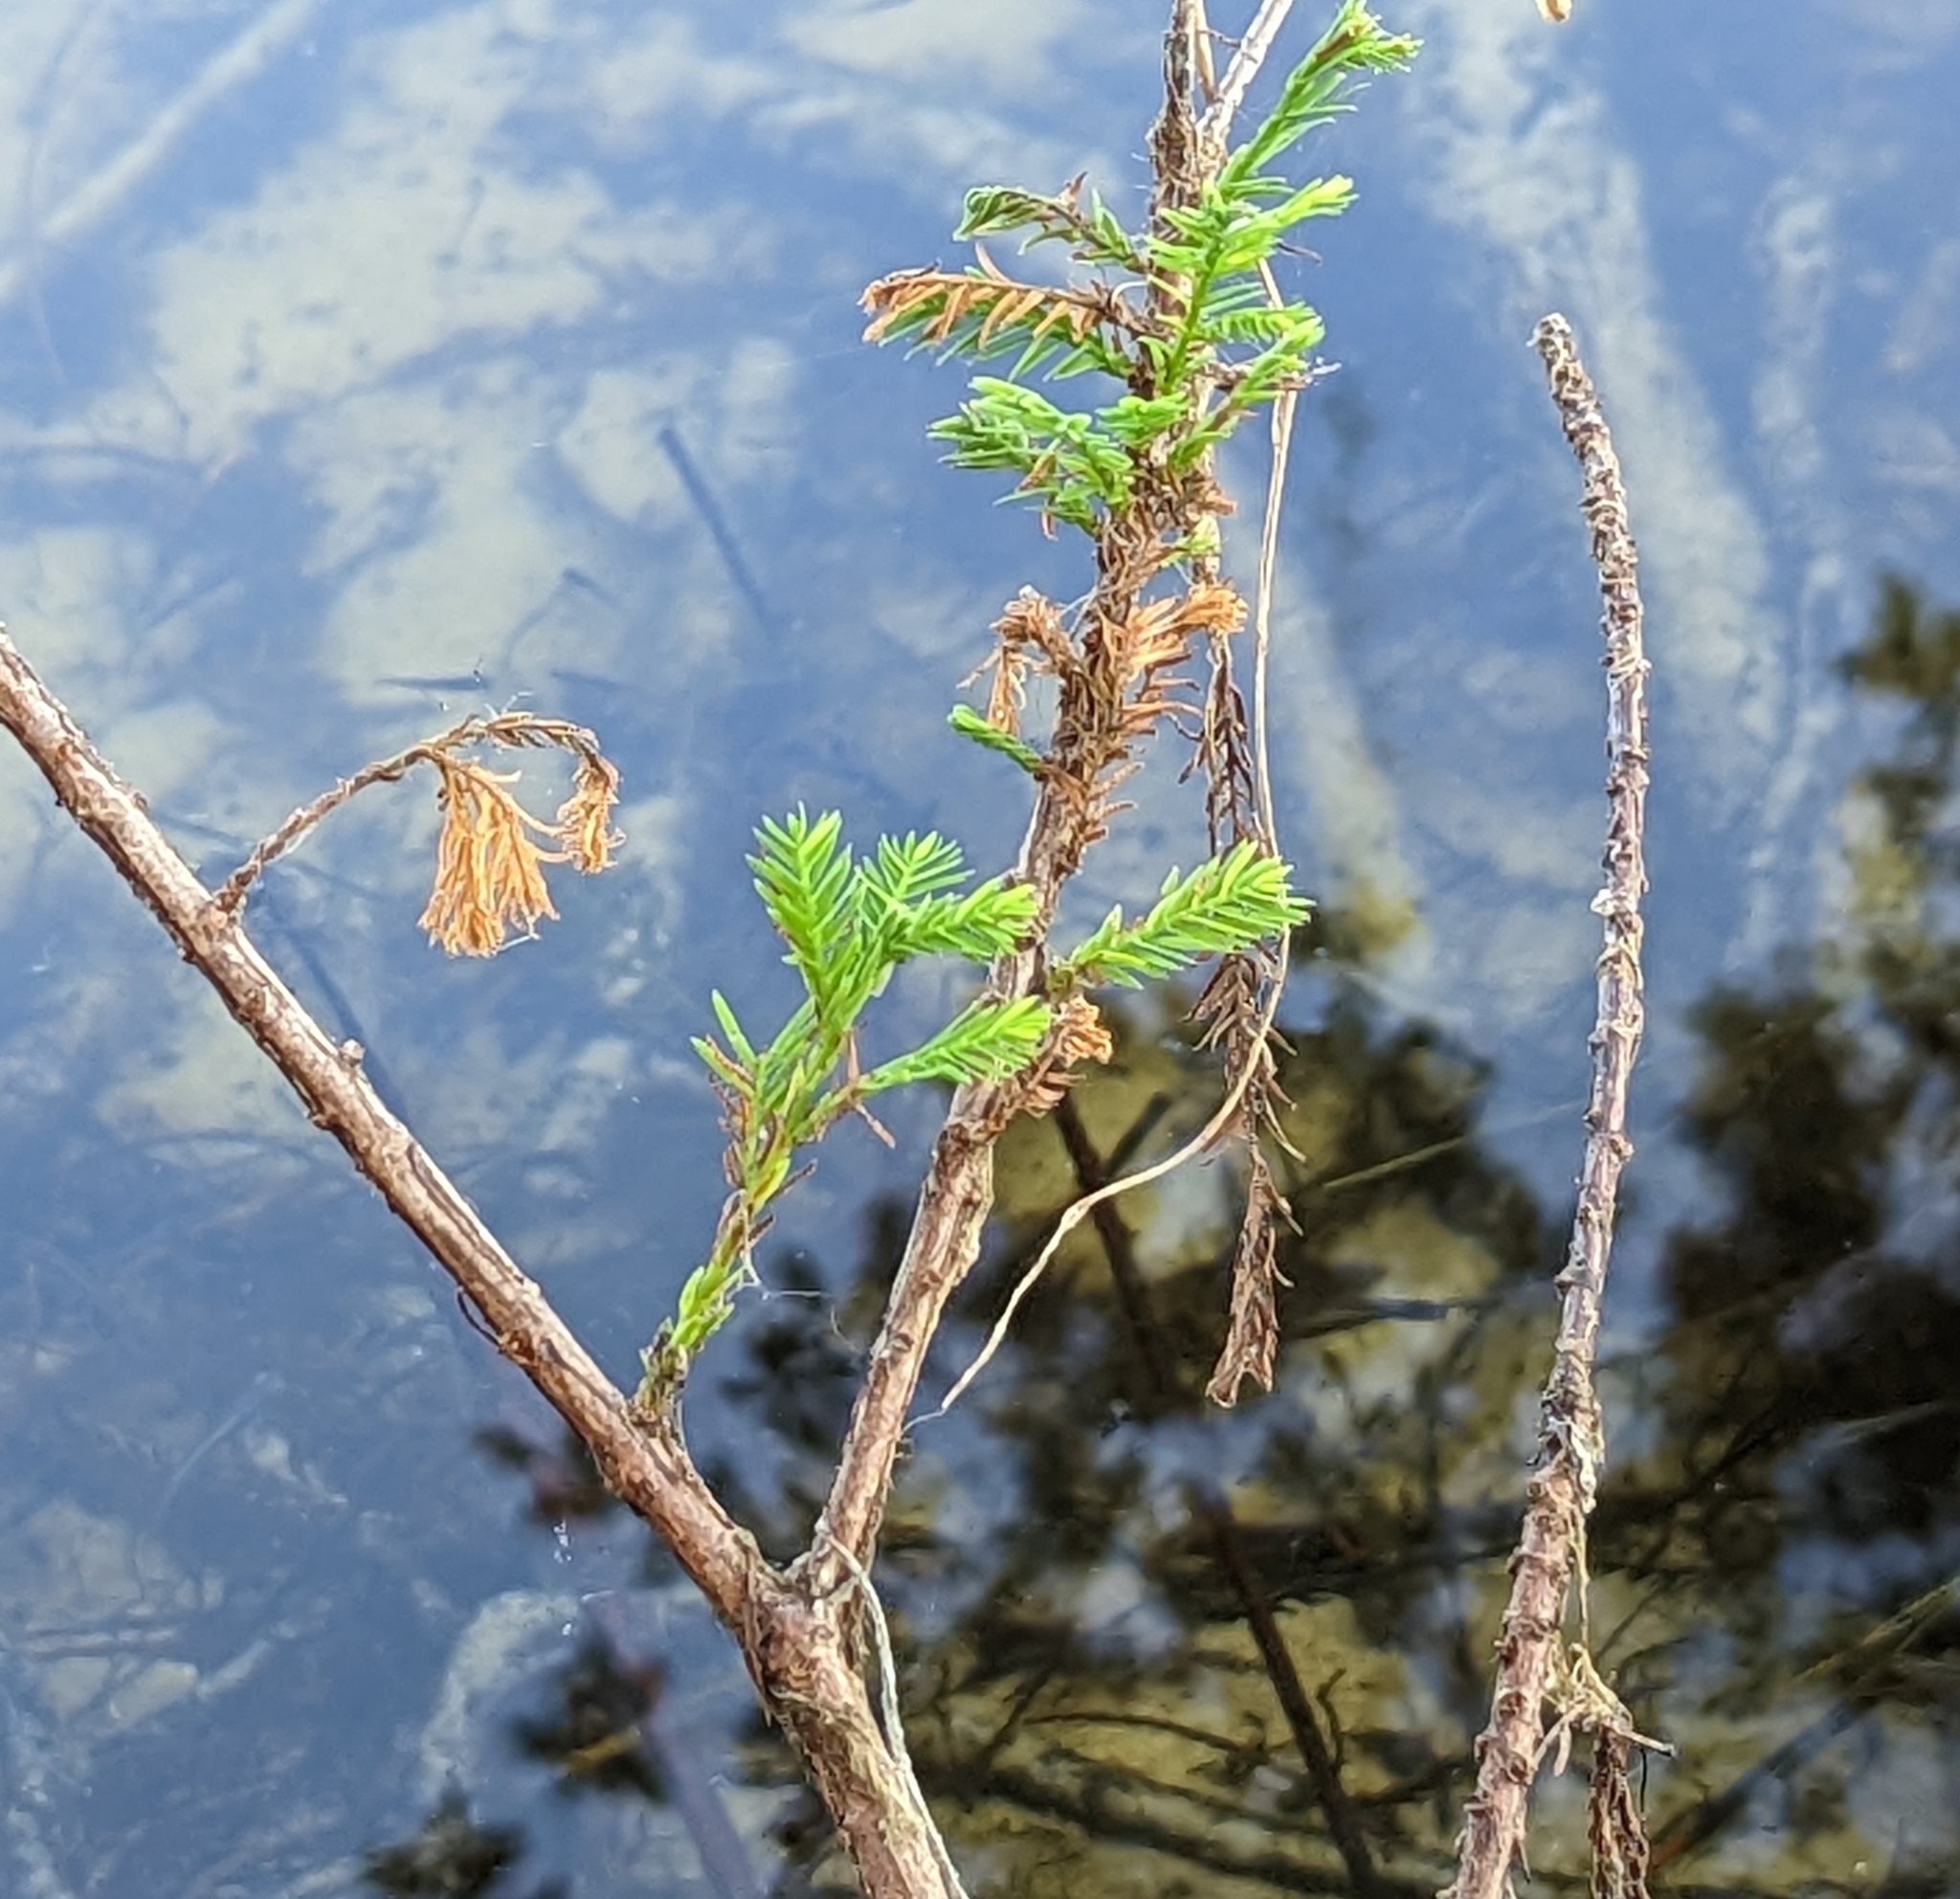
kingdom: Plantae
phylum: Tracheophyta
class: Pinopsida
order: Pinales
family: Cupressaceae
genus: Taxodium
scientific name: Taxodium distichum
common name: Bald cypress
